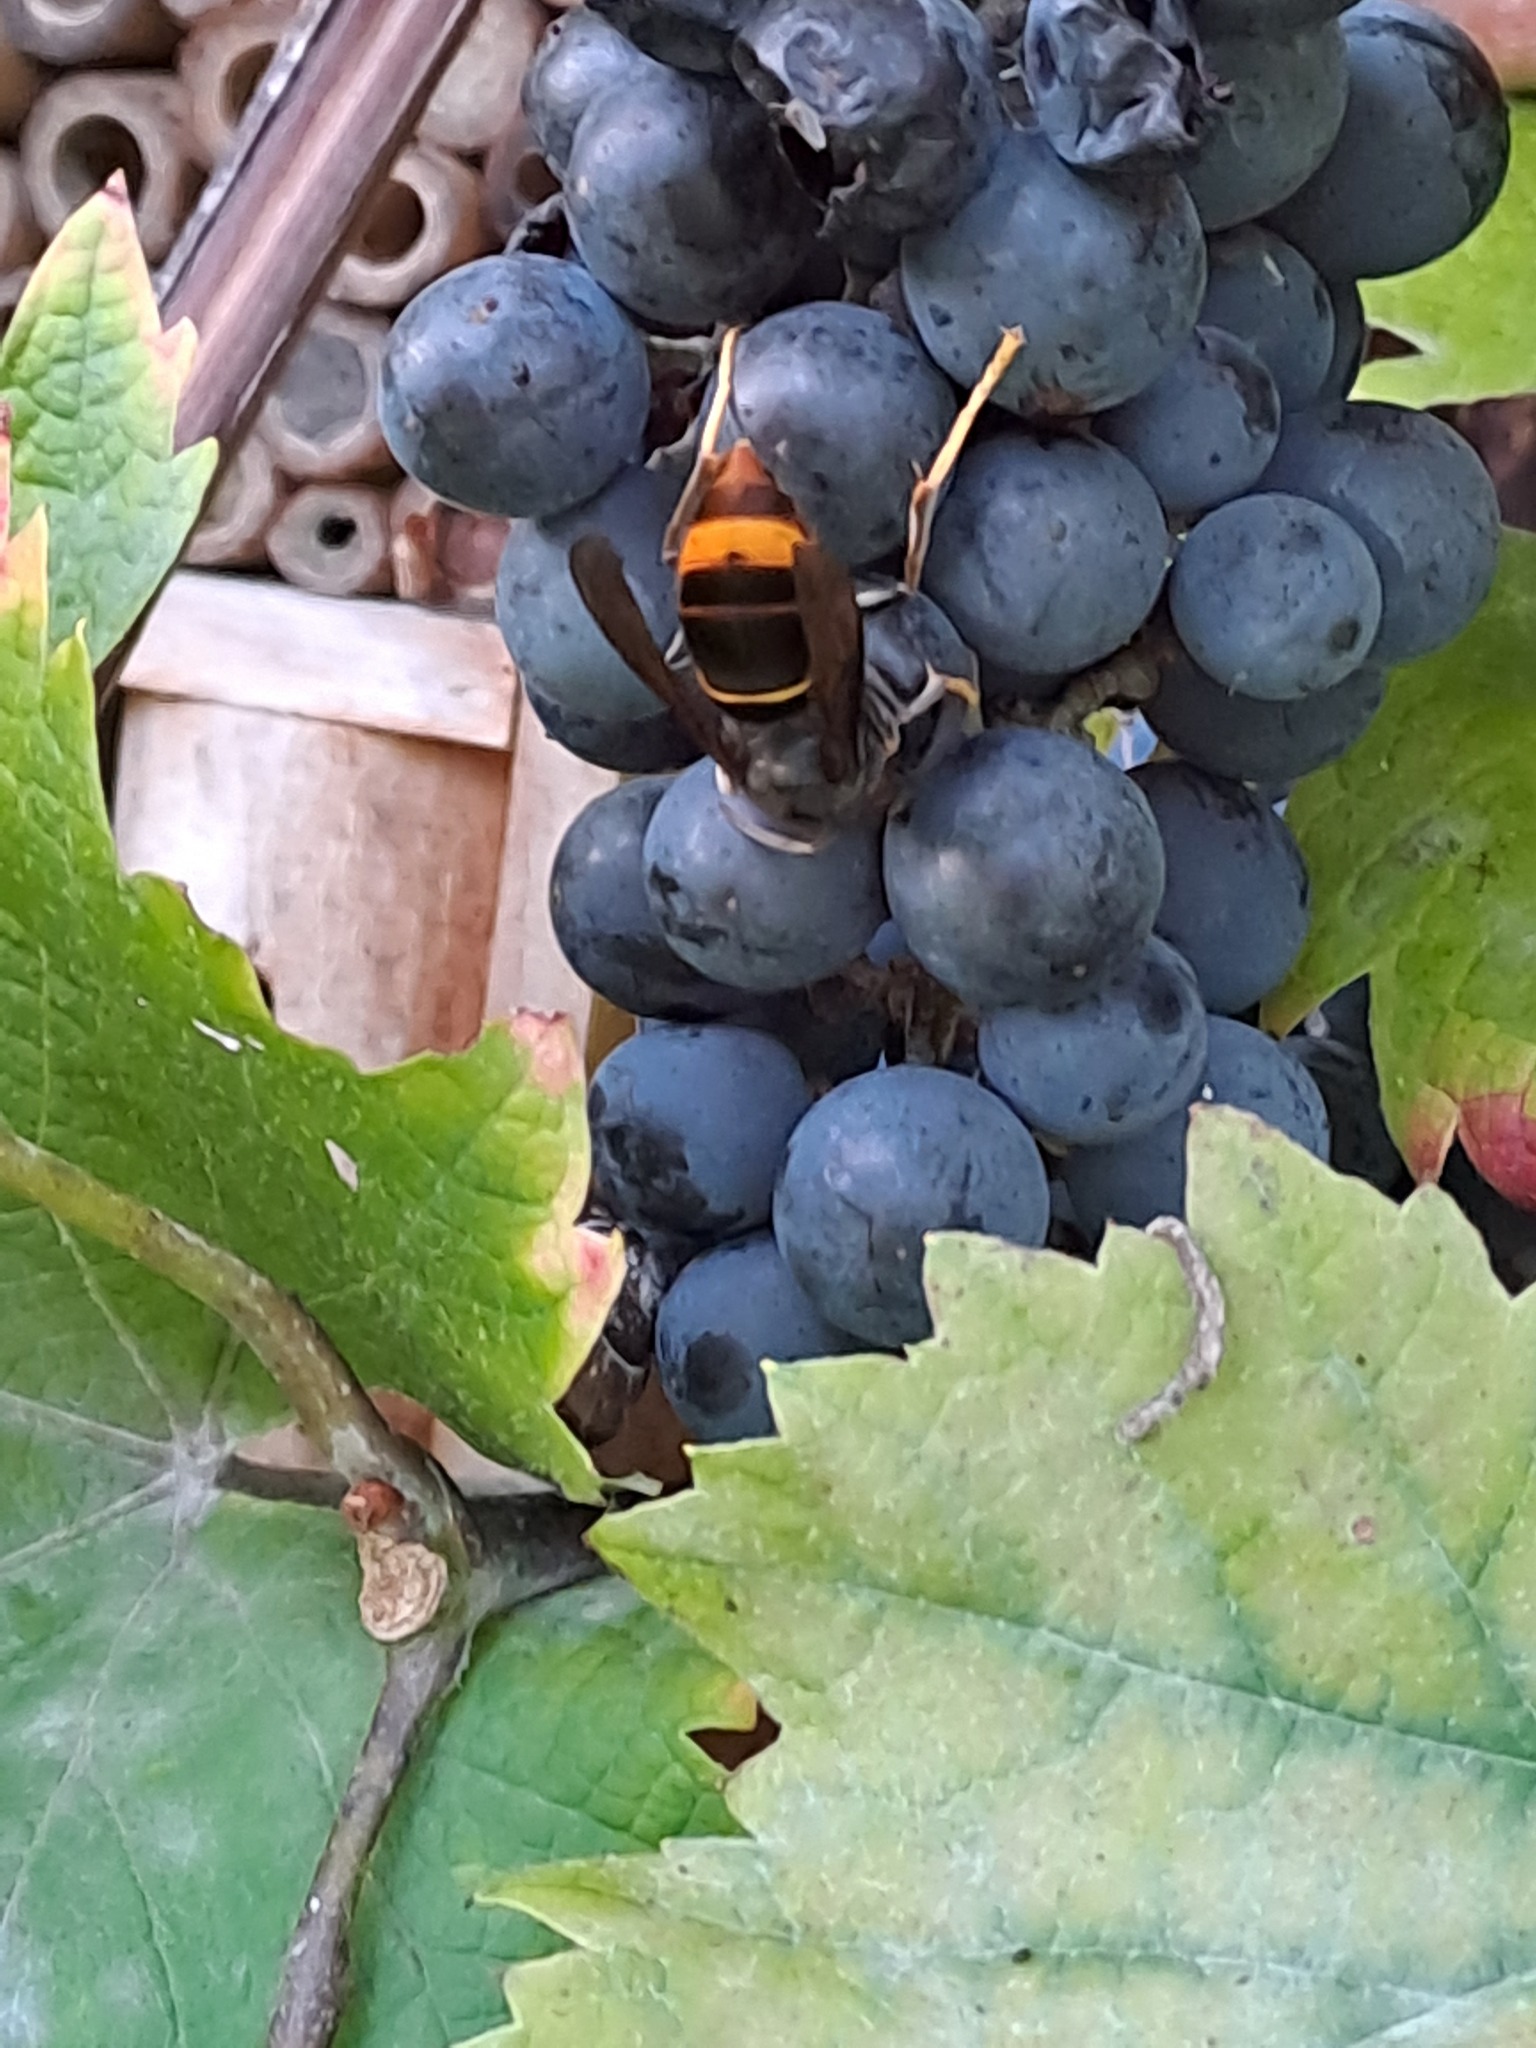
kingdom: Animalia
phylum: Arthropoda
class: Insecta
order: Hymenoptera
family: Vespidae
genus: Vespa
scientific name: Vespa velutina
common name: Asian hornet
